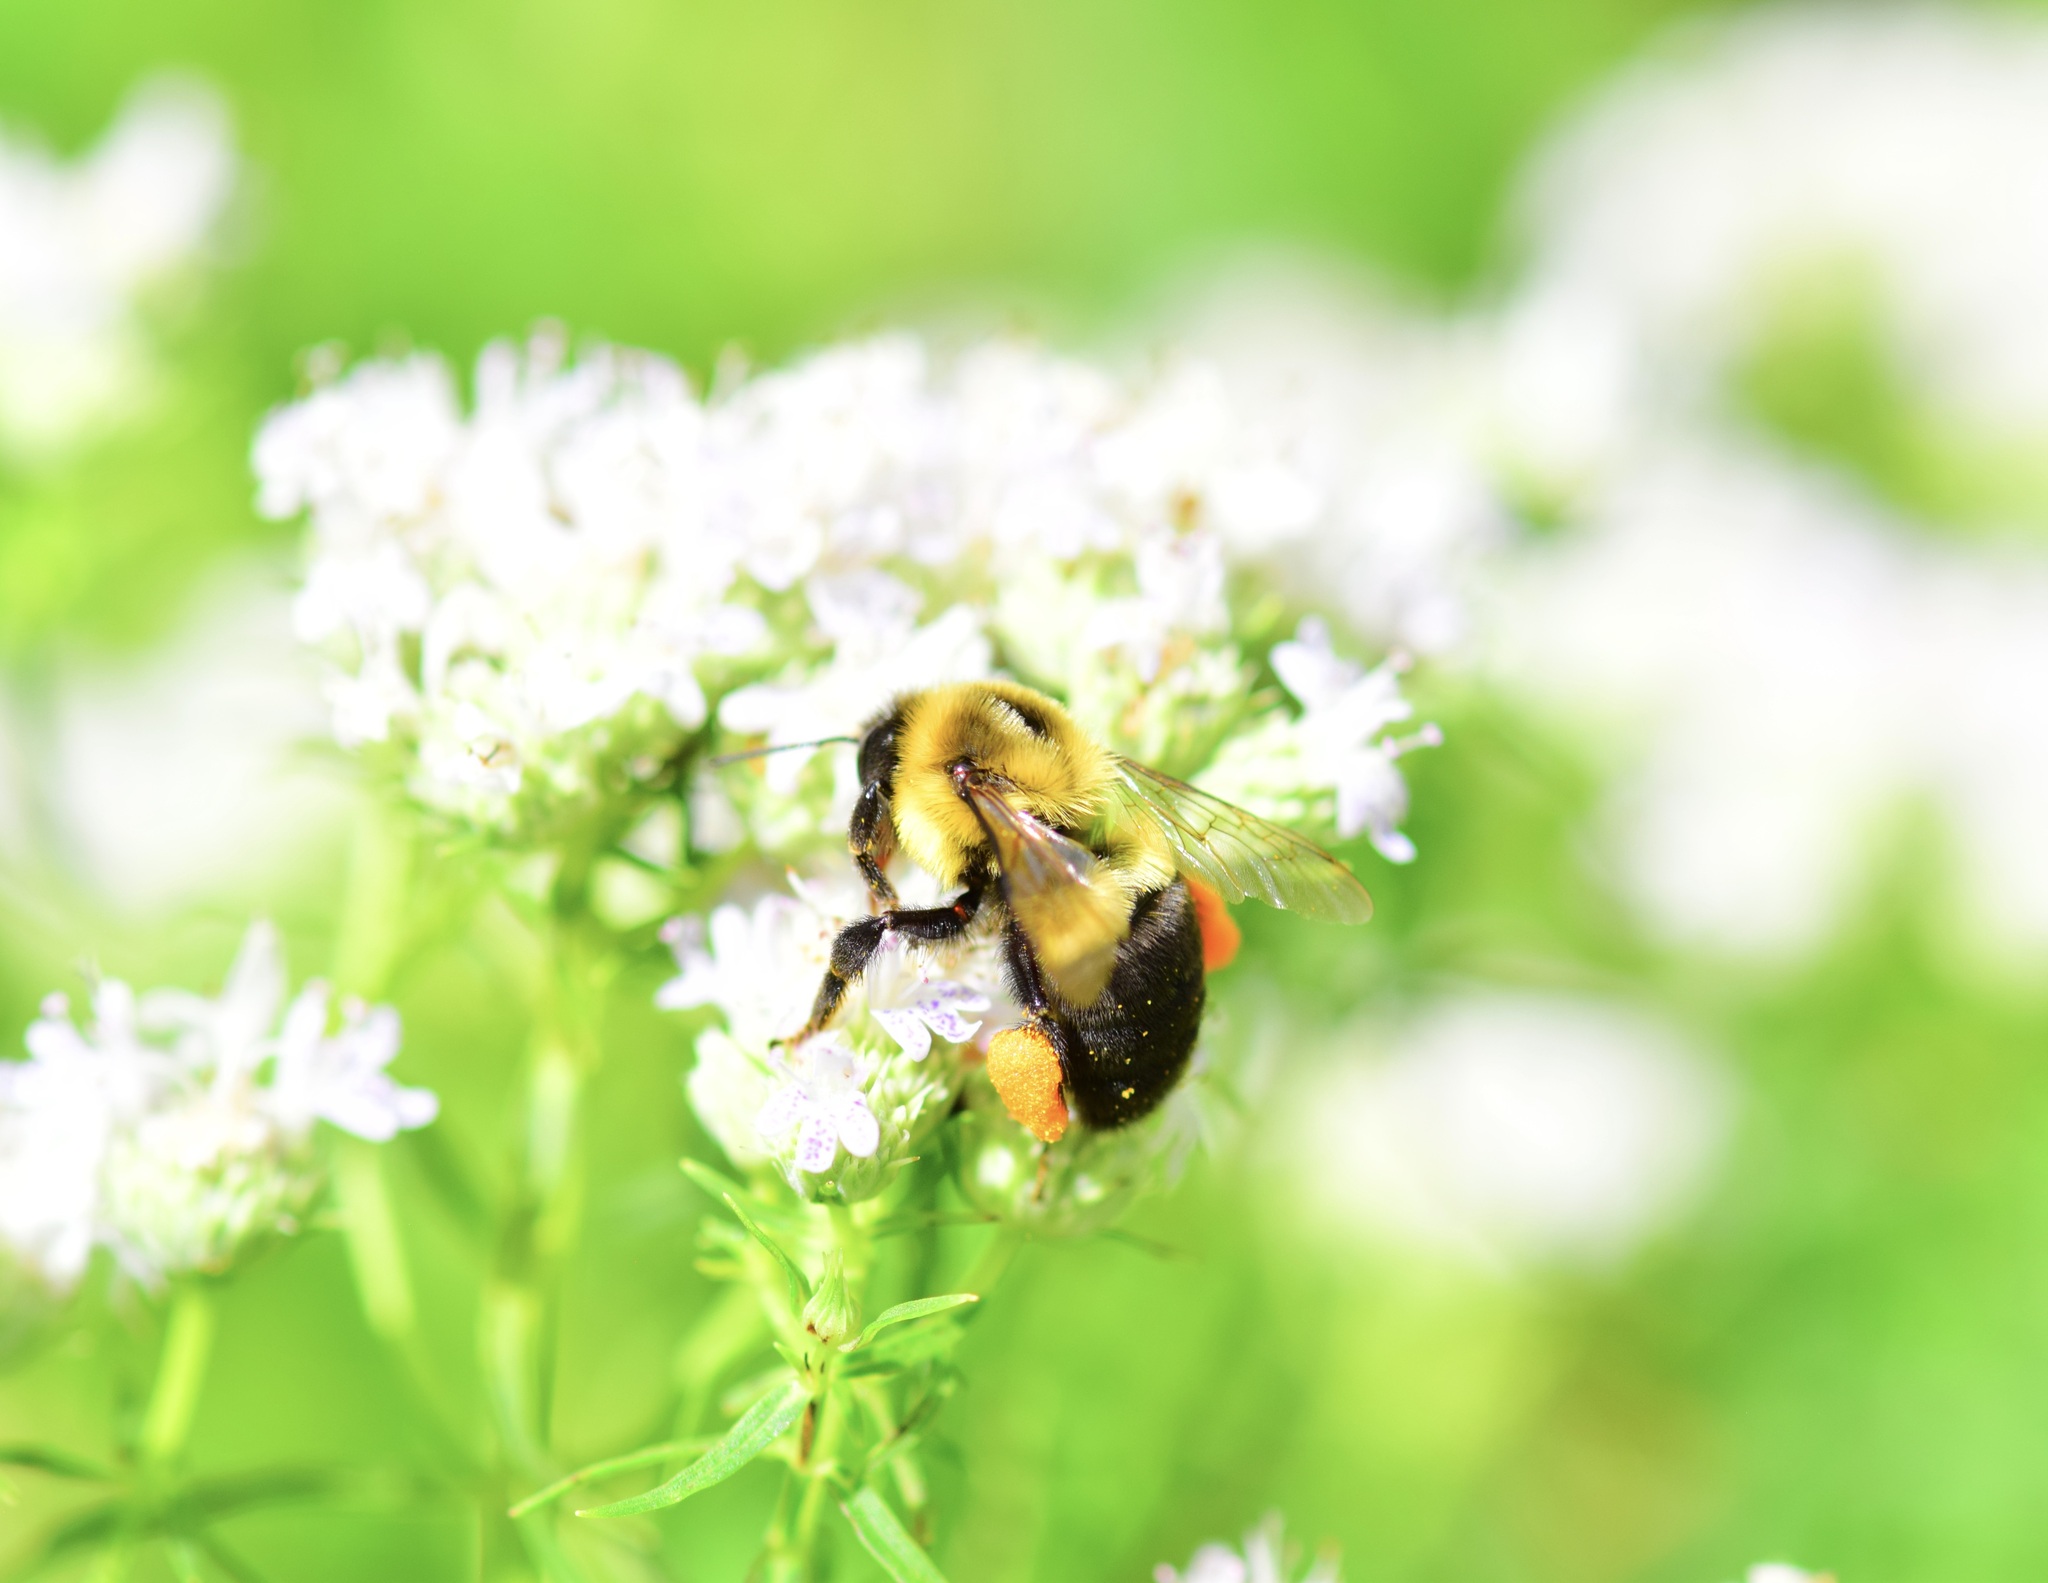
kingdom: Animalia
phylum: Arthropoda
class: Insecta
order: Hymenoptera
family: Apidae
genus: Bombus
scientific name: Bombus impatiens
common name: Common eastern bumble bee
